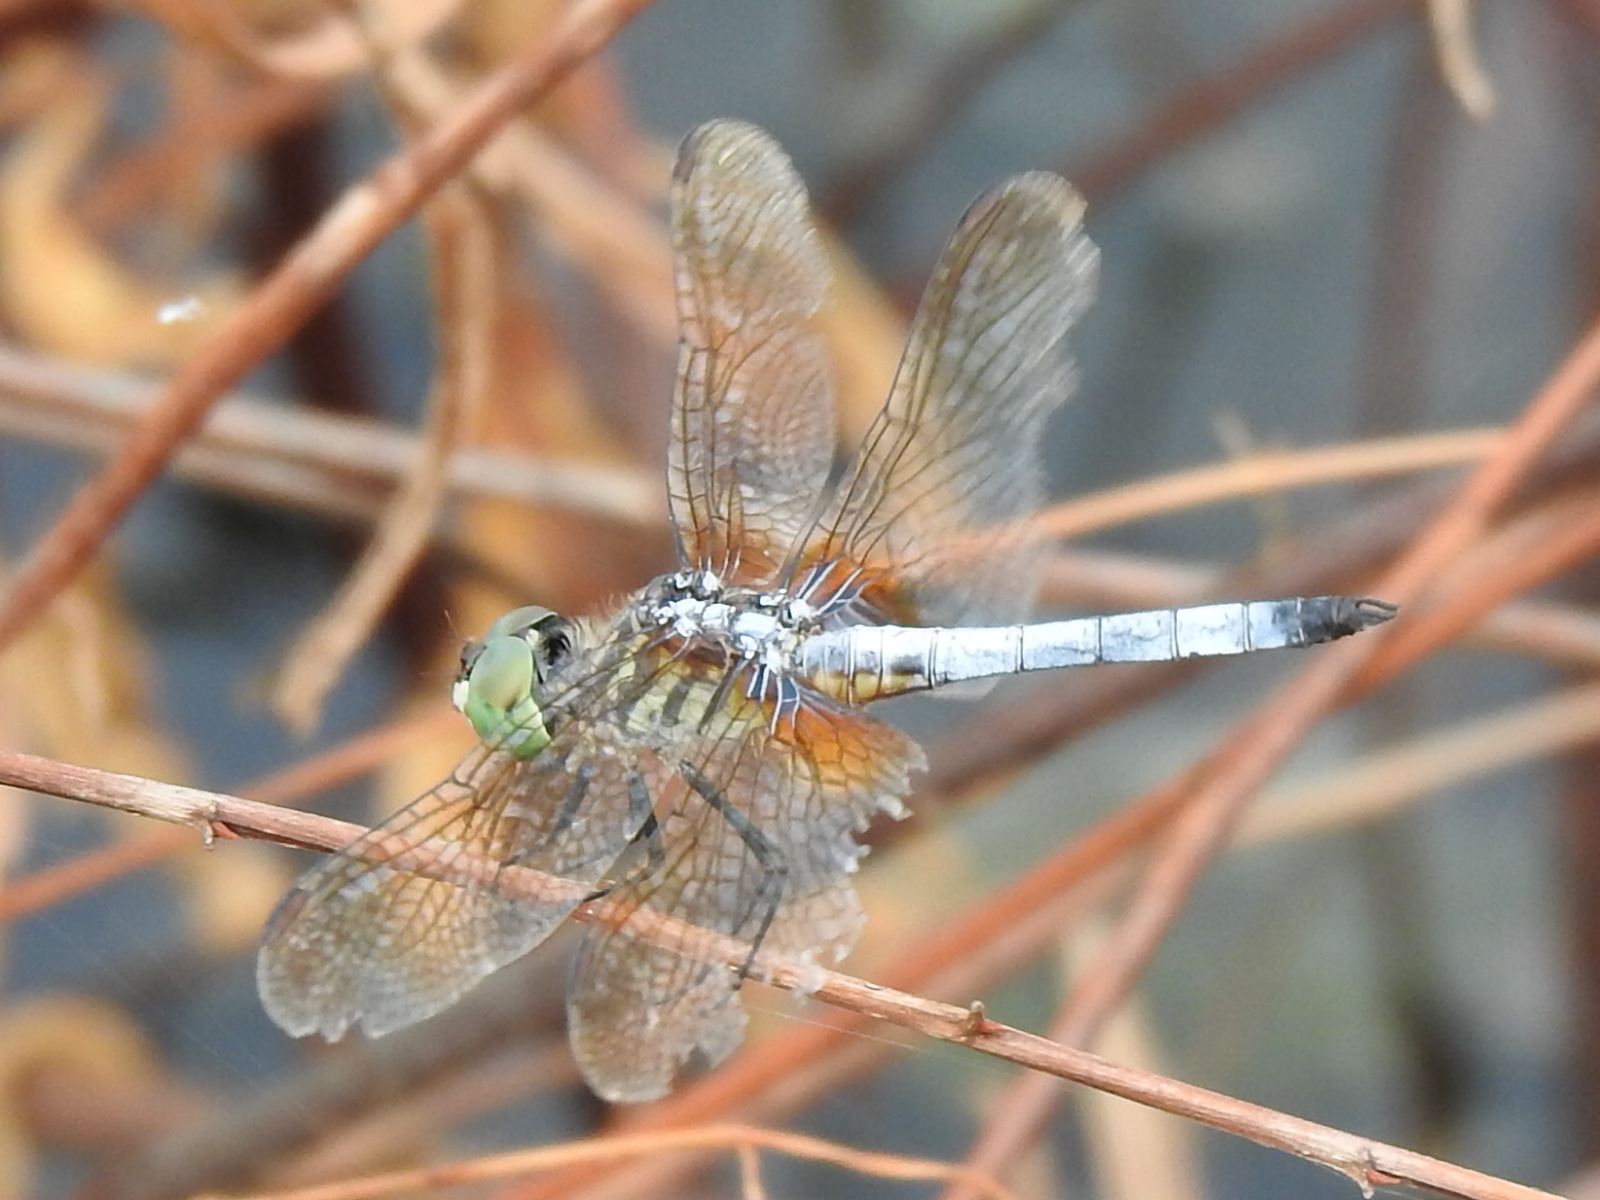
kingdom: Animalia
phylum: Arthropoda
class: Insecta
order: Odonata
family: Libellulidae
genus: Pachydiplax
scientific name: Pachydiplax longipennis
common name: Blue dasher
